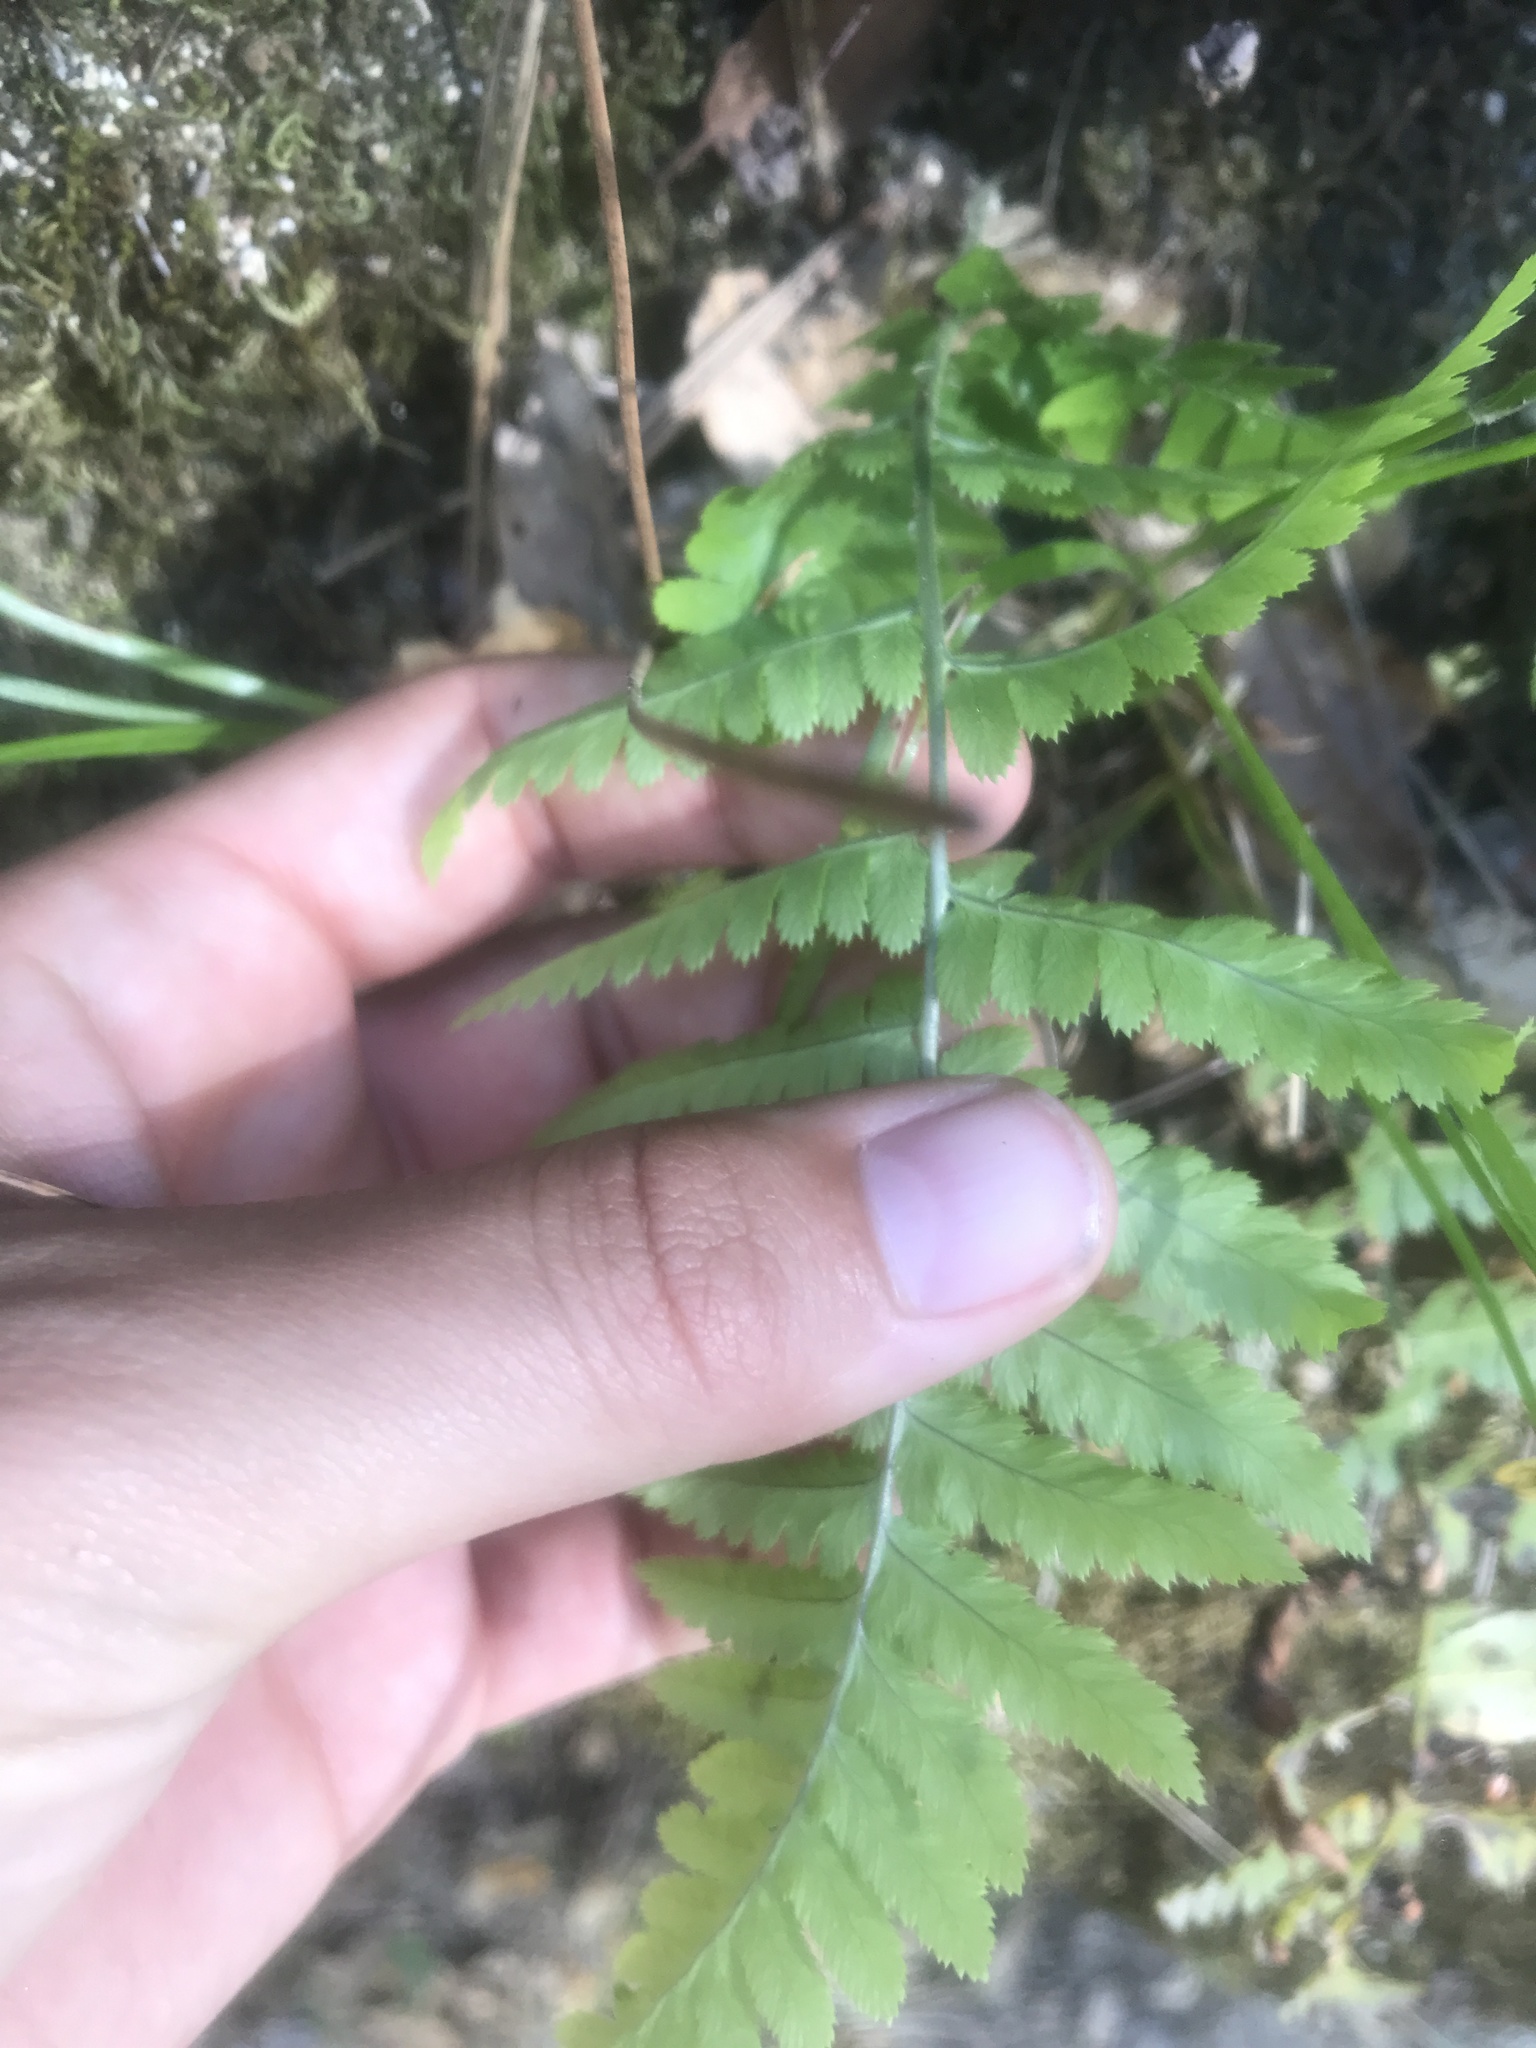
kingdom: Plantae
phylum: Tracheophyta
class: Polypodiopsida
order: Polypodiales
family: Dryopteridaceae
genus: Dryopteris
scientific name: Dryopteris arguta
